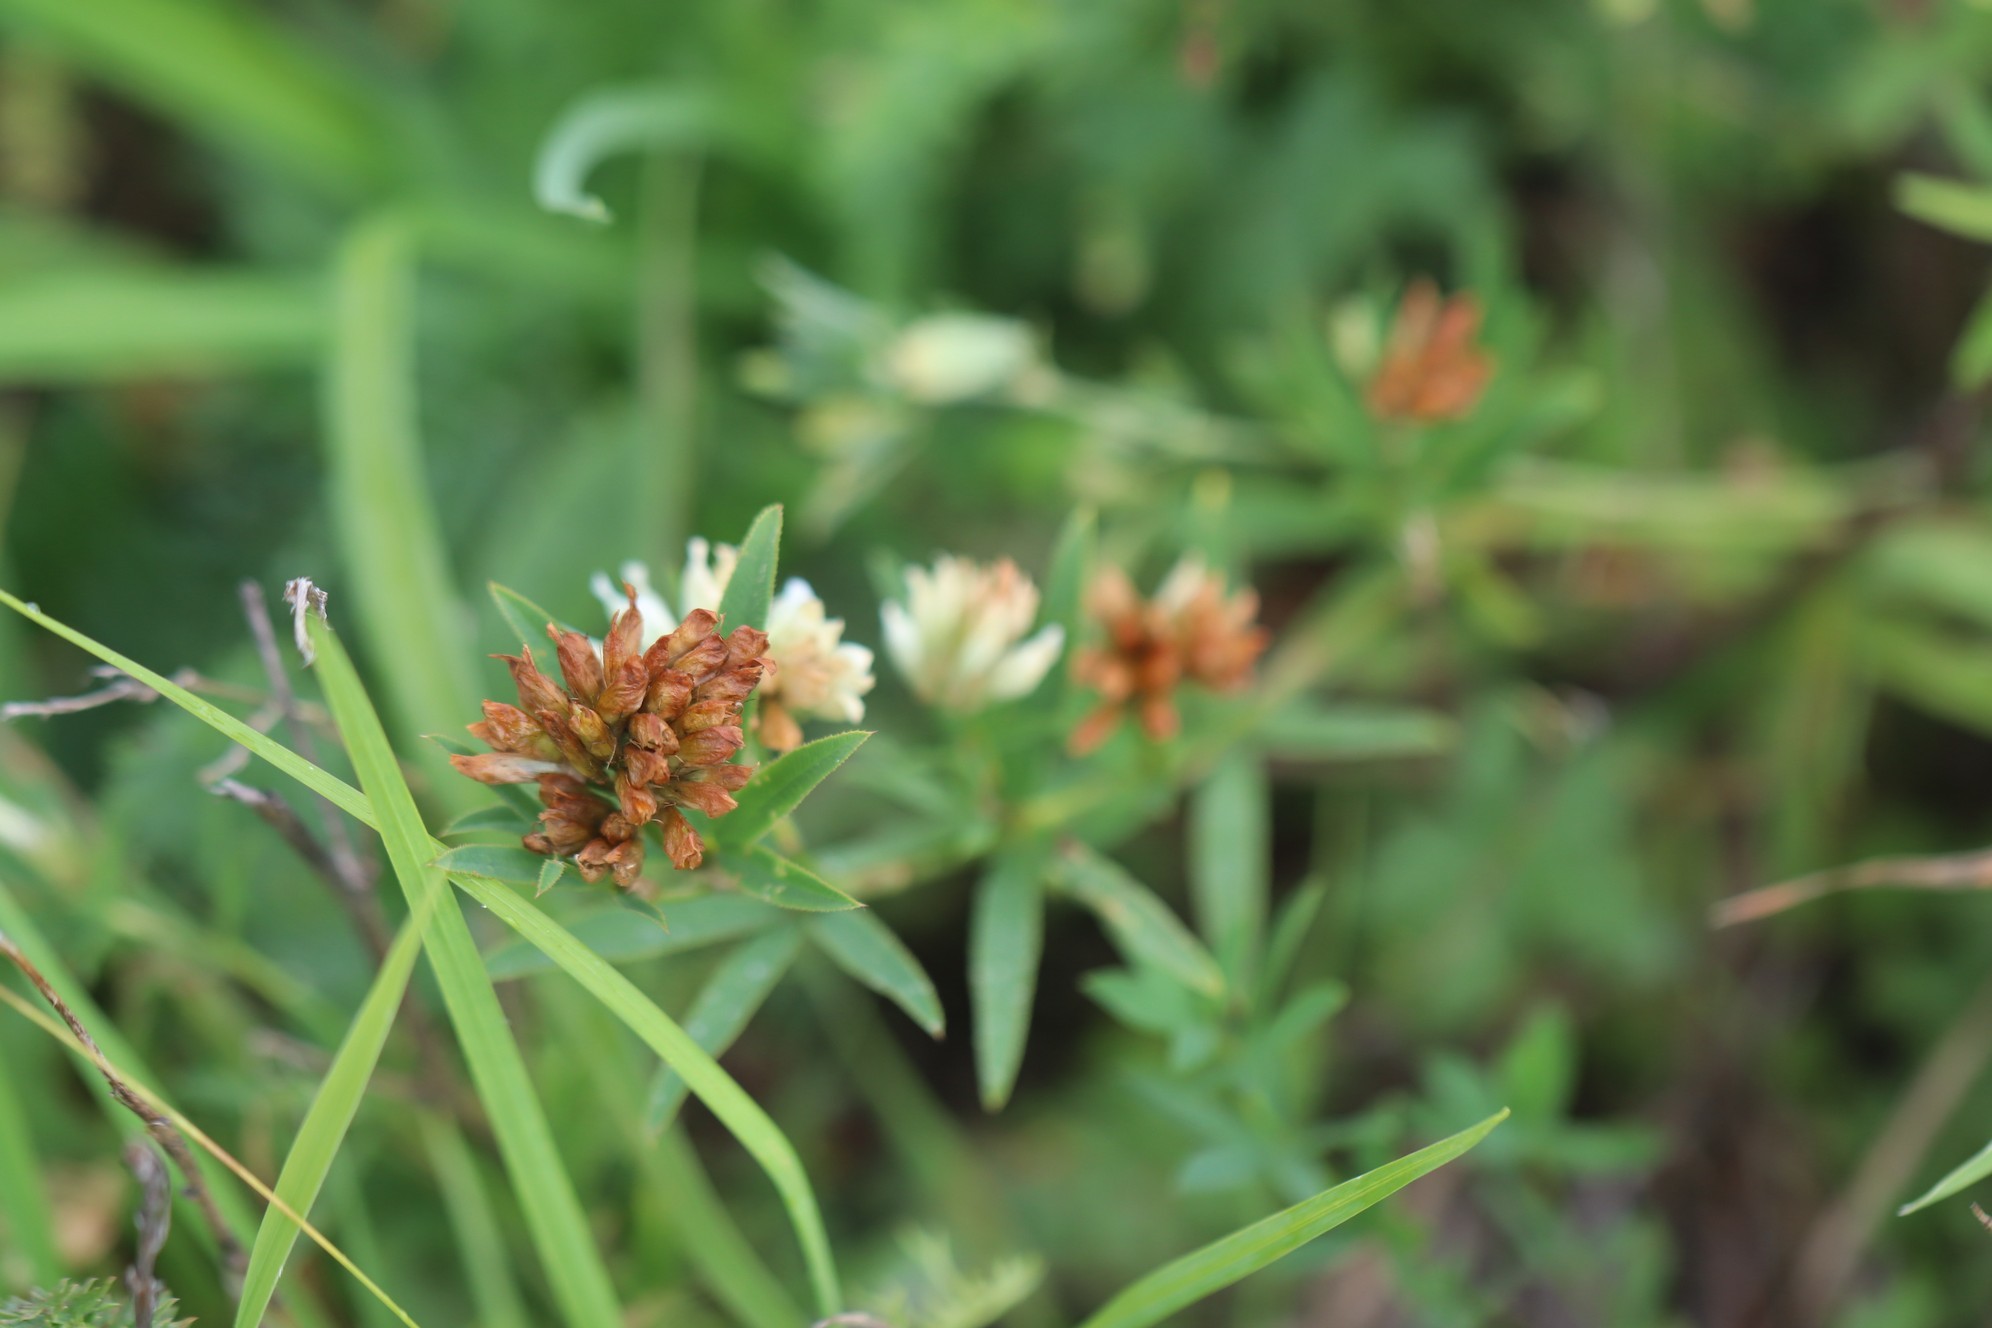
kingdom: Plantae
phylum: Tracheophyta
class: Magnoliopsida
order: Fabales
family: Fabaceae
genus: Trifolium
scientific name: Trifolium lupinaster
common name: Lupine clover
